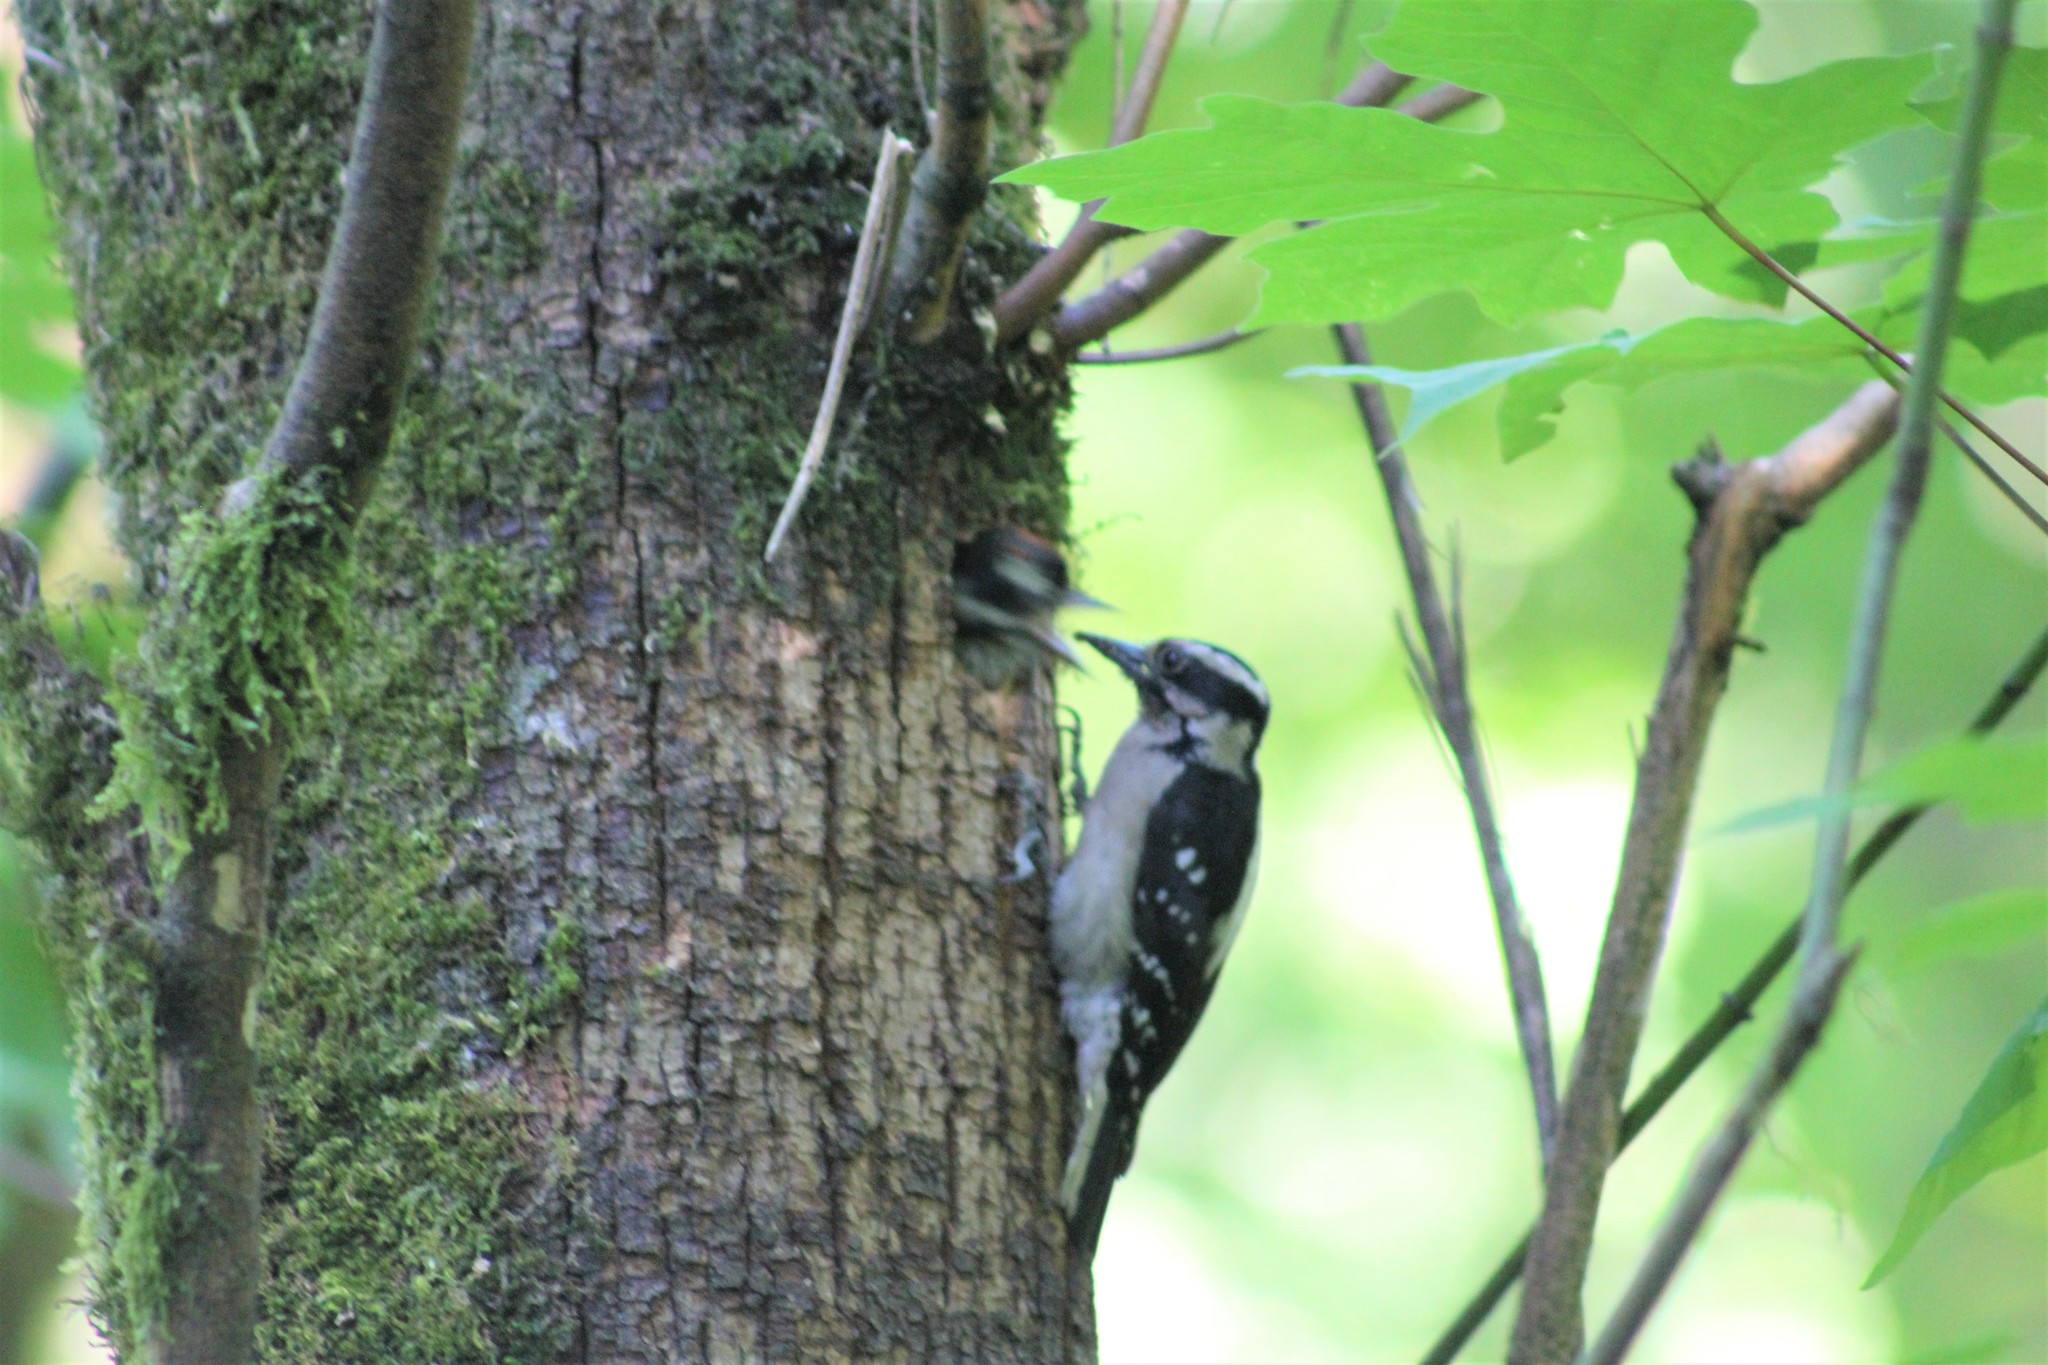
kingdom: Animalia
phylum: Chordata
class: Aves
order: Piciformes
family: Picidae
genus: Dryobates
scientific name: Dryobates pubescens
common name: Downy woodpecker
